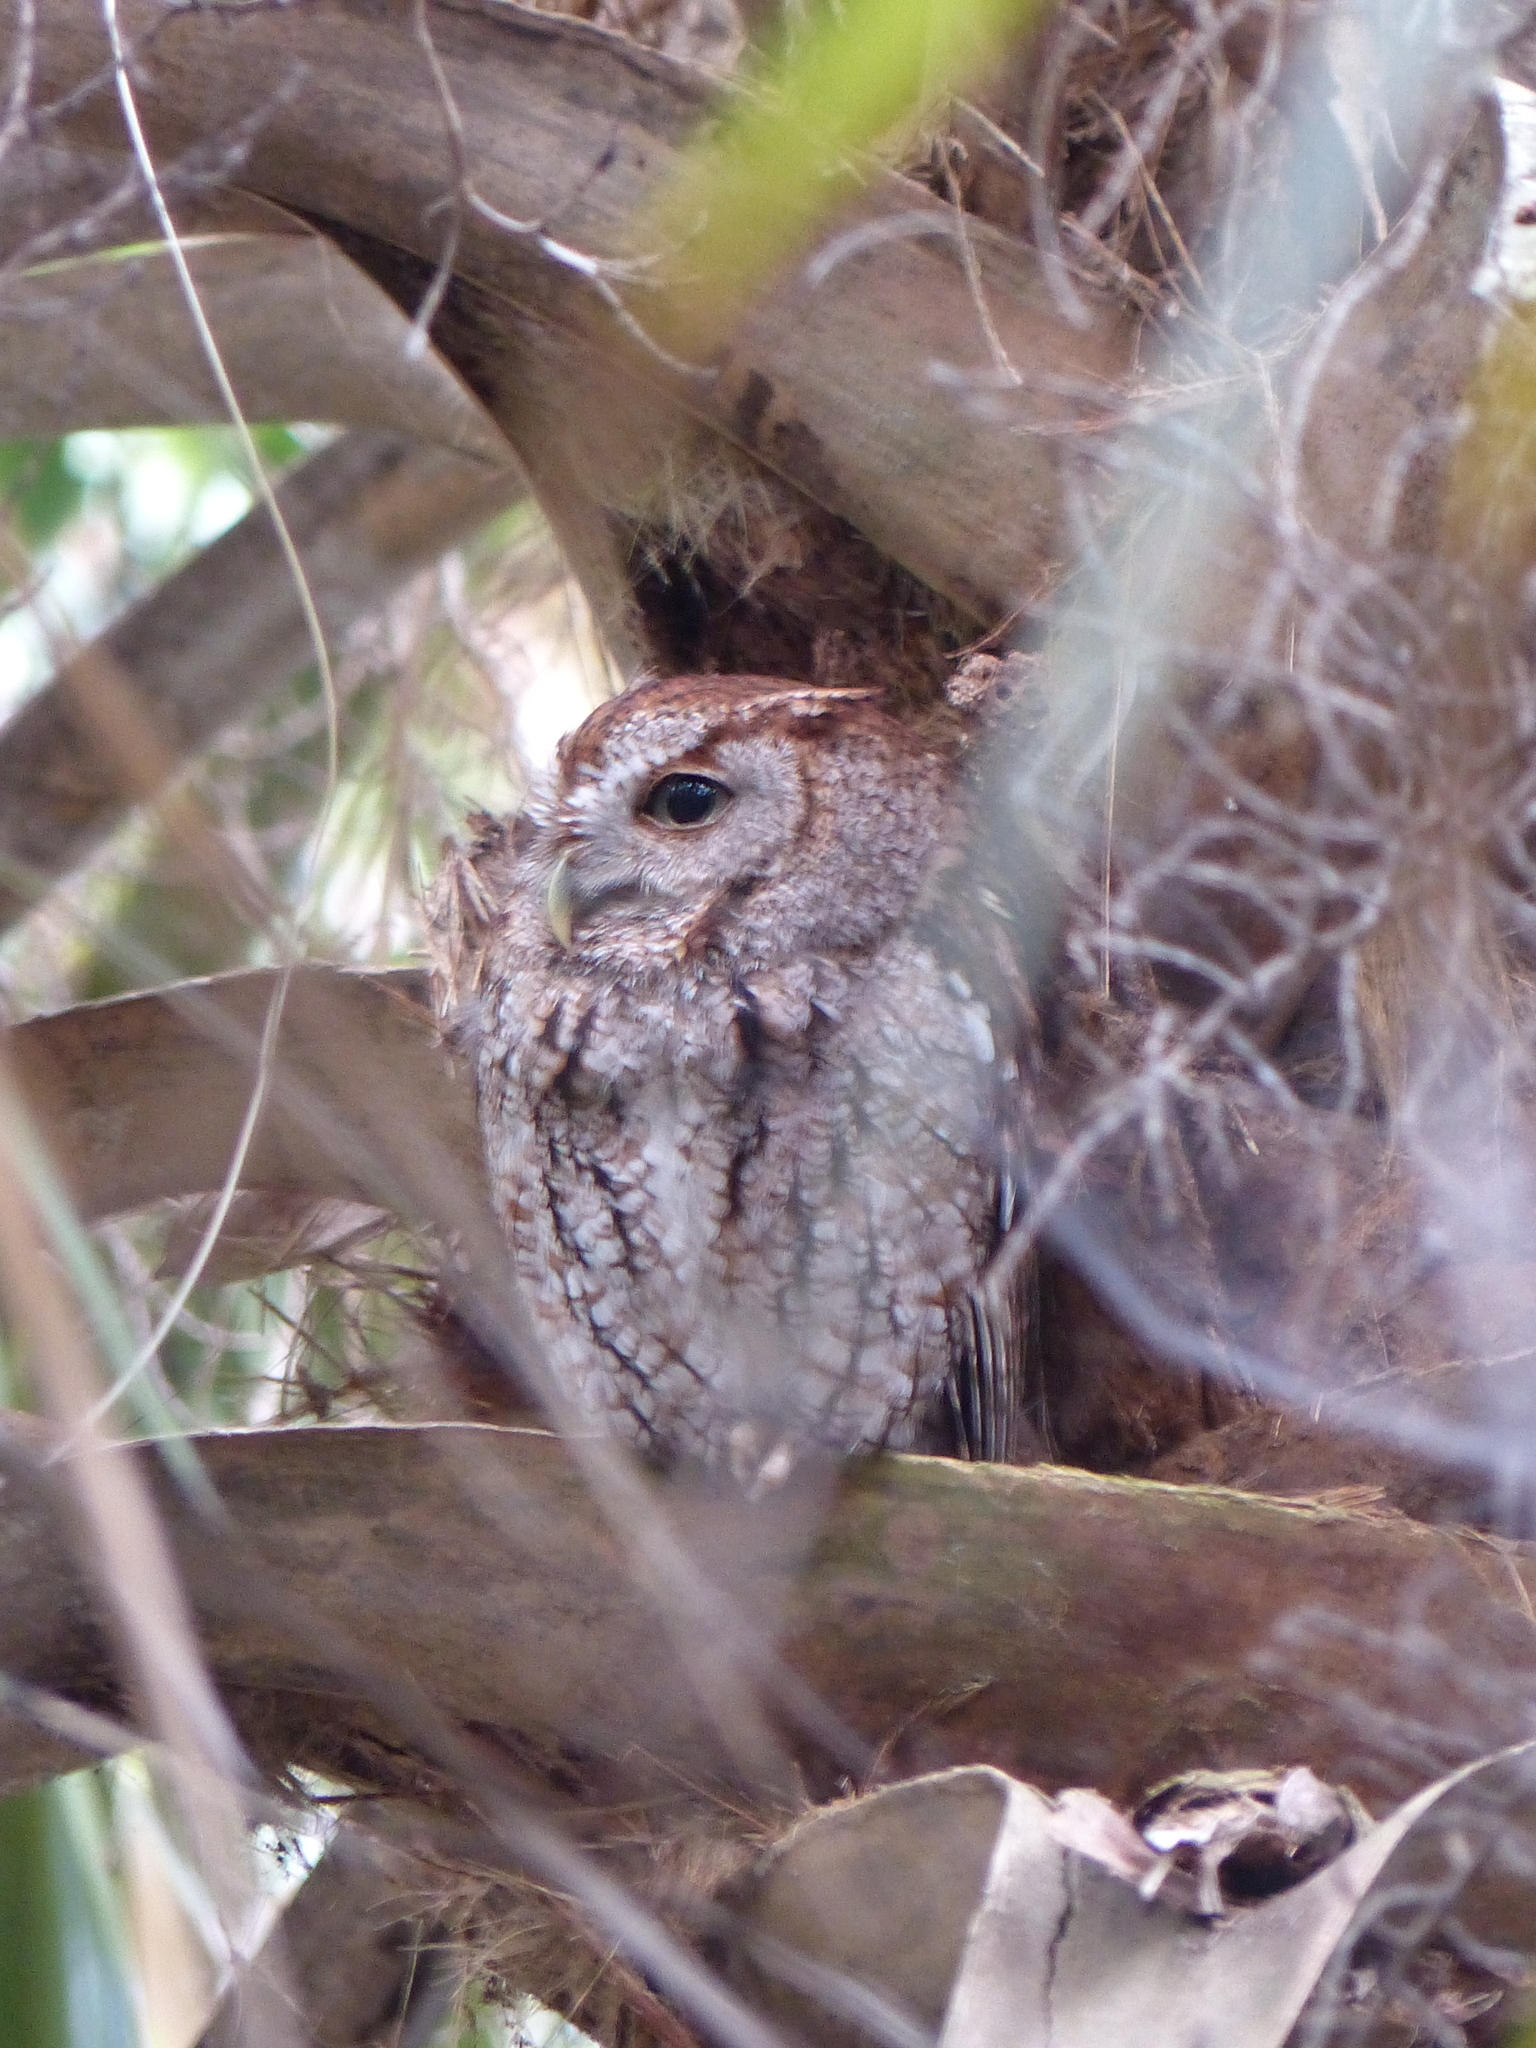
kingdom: Animalia
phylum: Chordata
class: Aves
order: Strigiformes
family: Strigidae
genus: Megascops
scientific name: Megascops asio
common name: Eastern screech-owl
